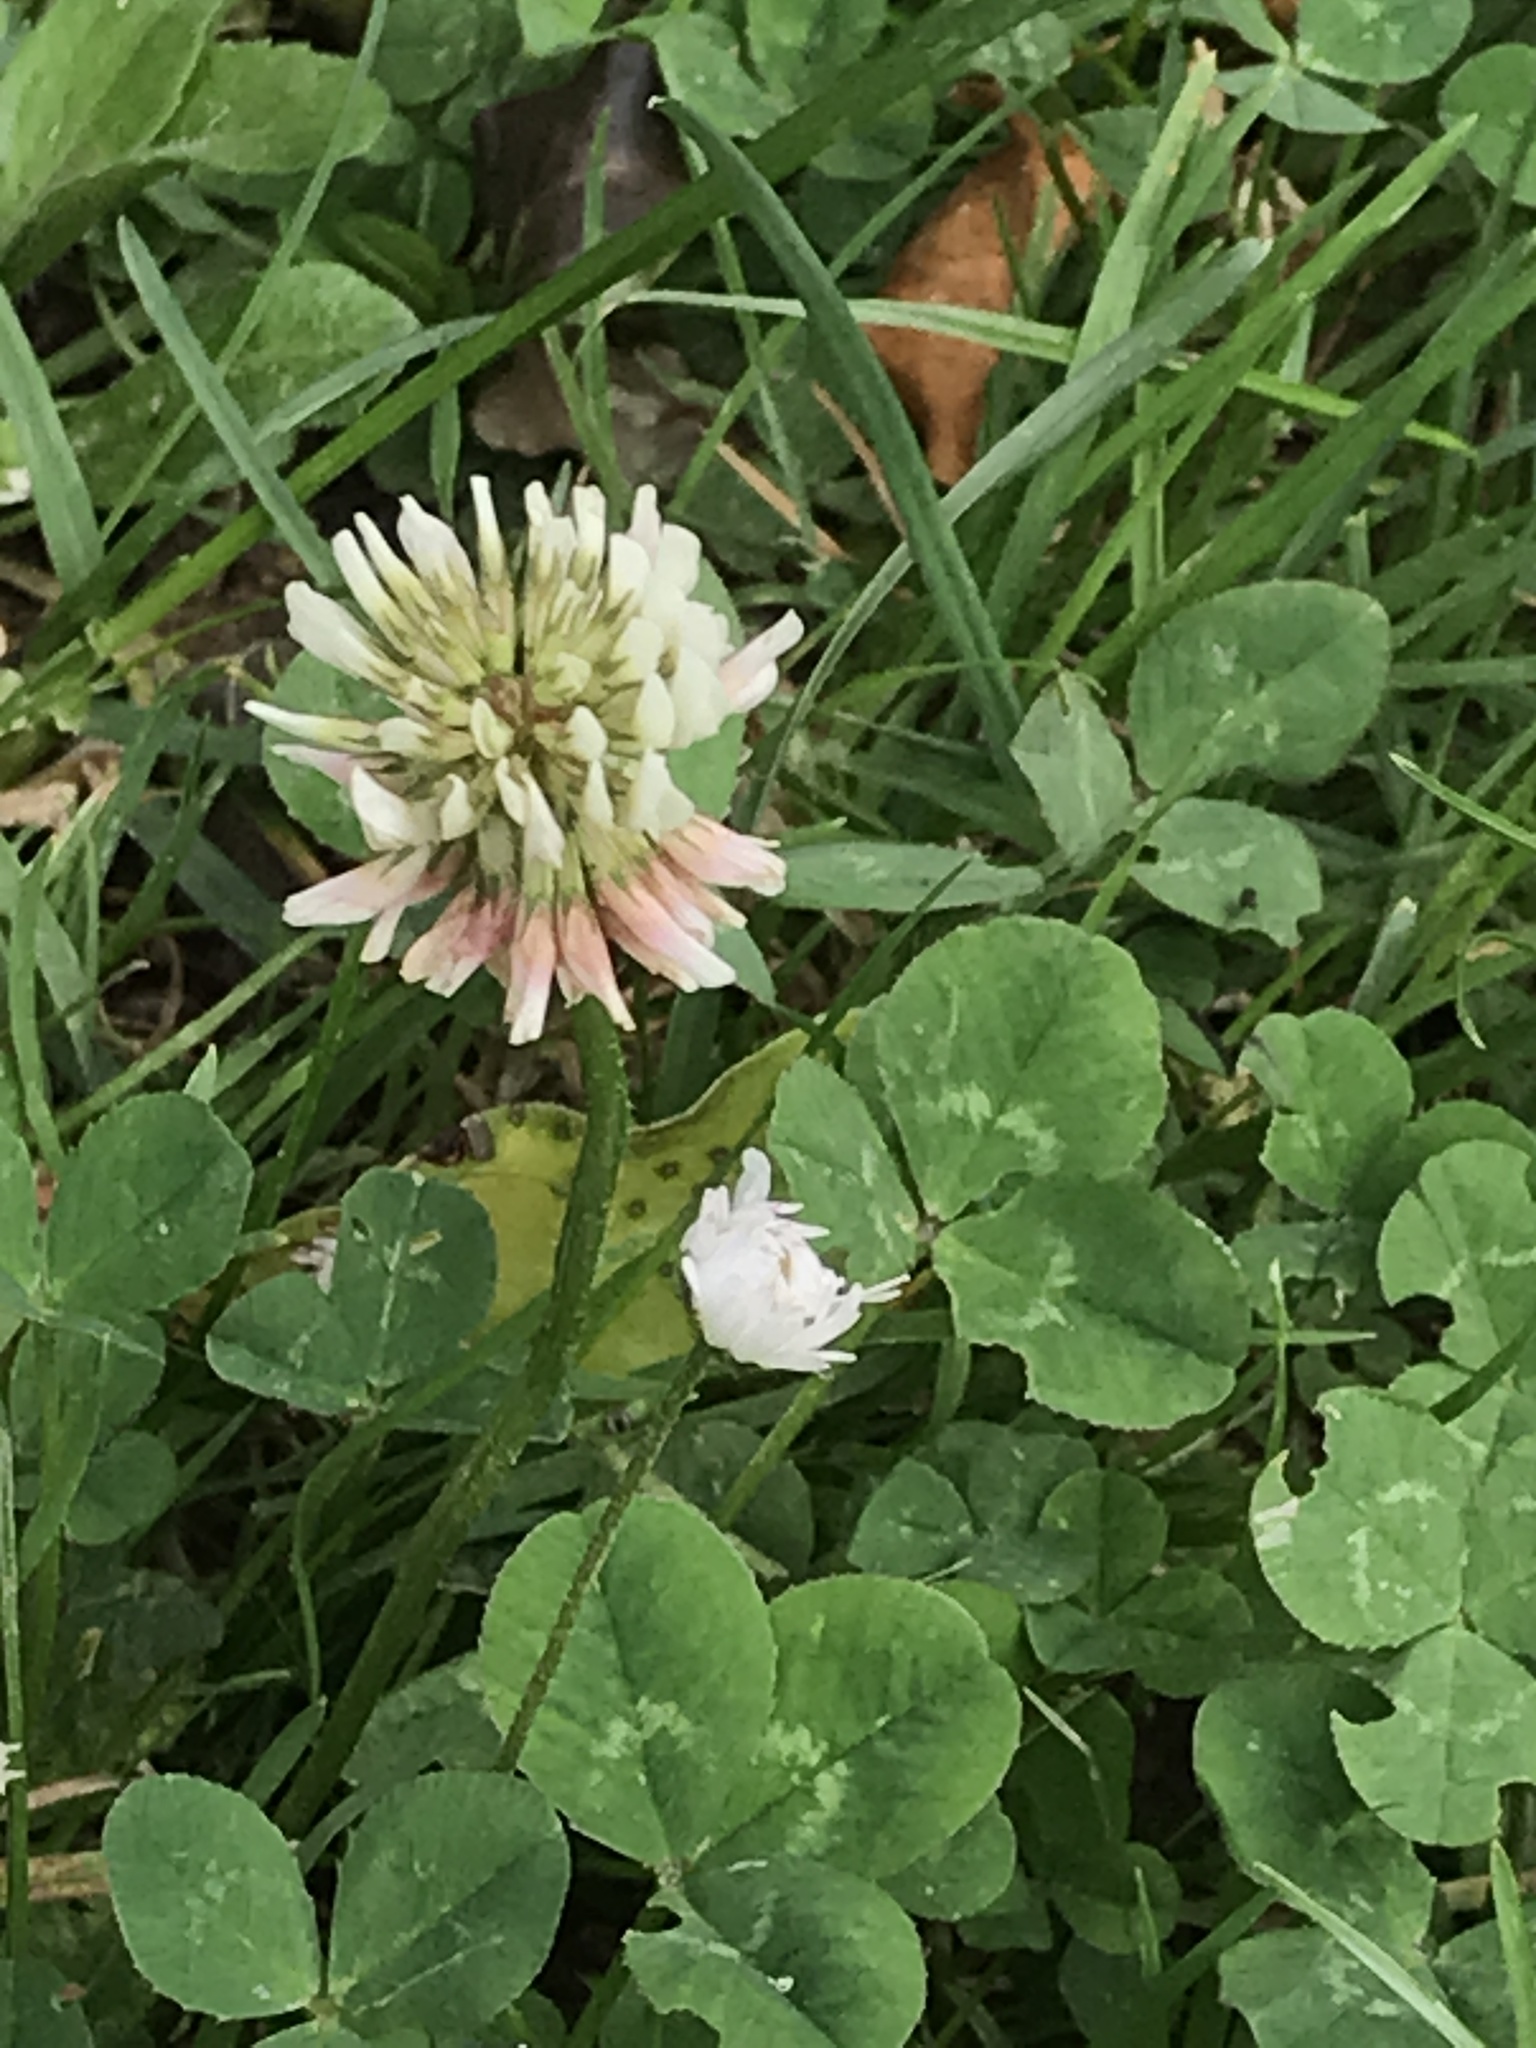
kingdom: Plantae
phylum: Tracheophyta
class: Magnoliopsida
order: Fabales
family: Fabaceae
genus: Trifolium
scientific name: Trifolium repens
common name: White clover
